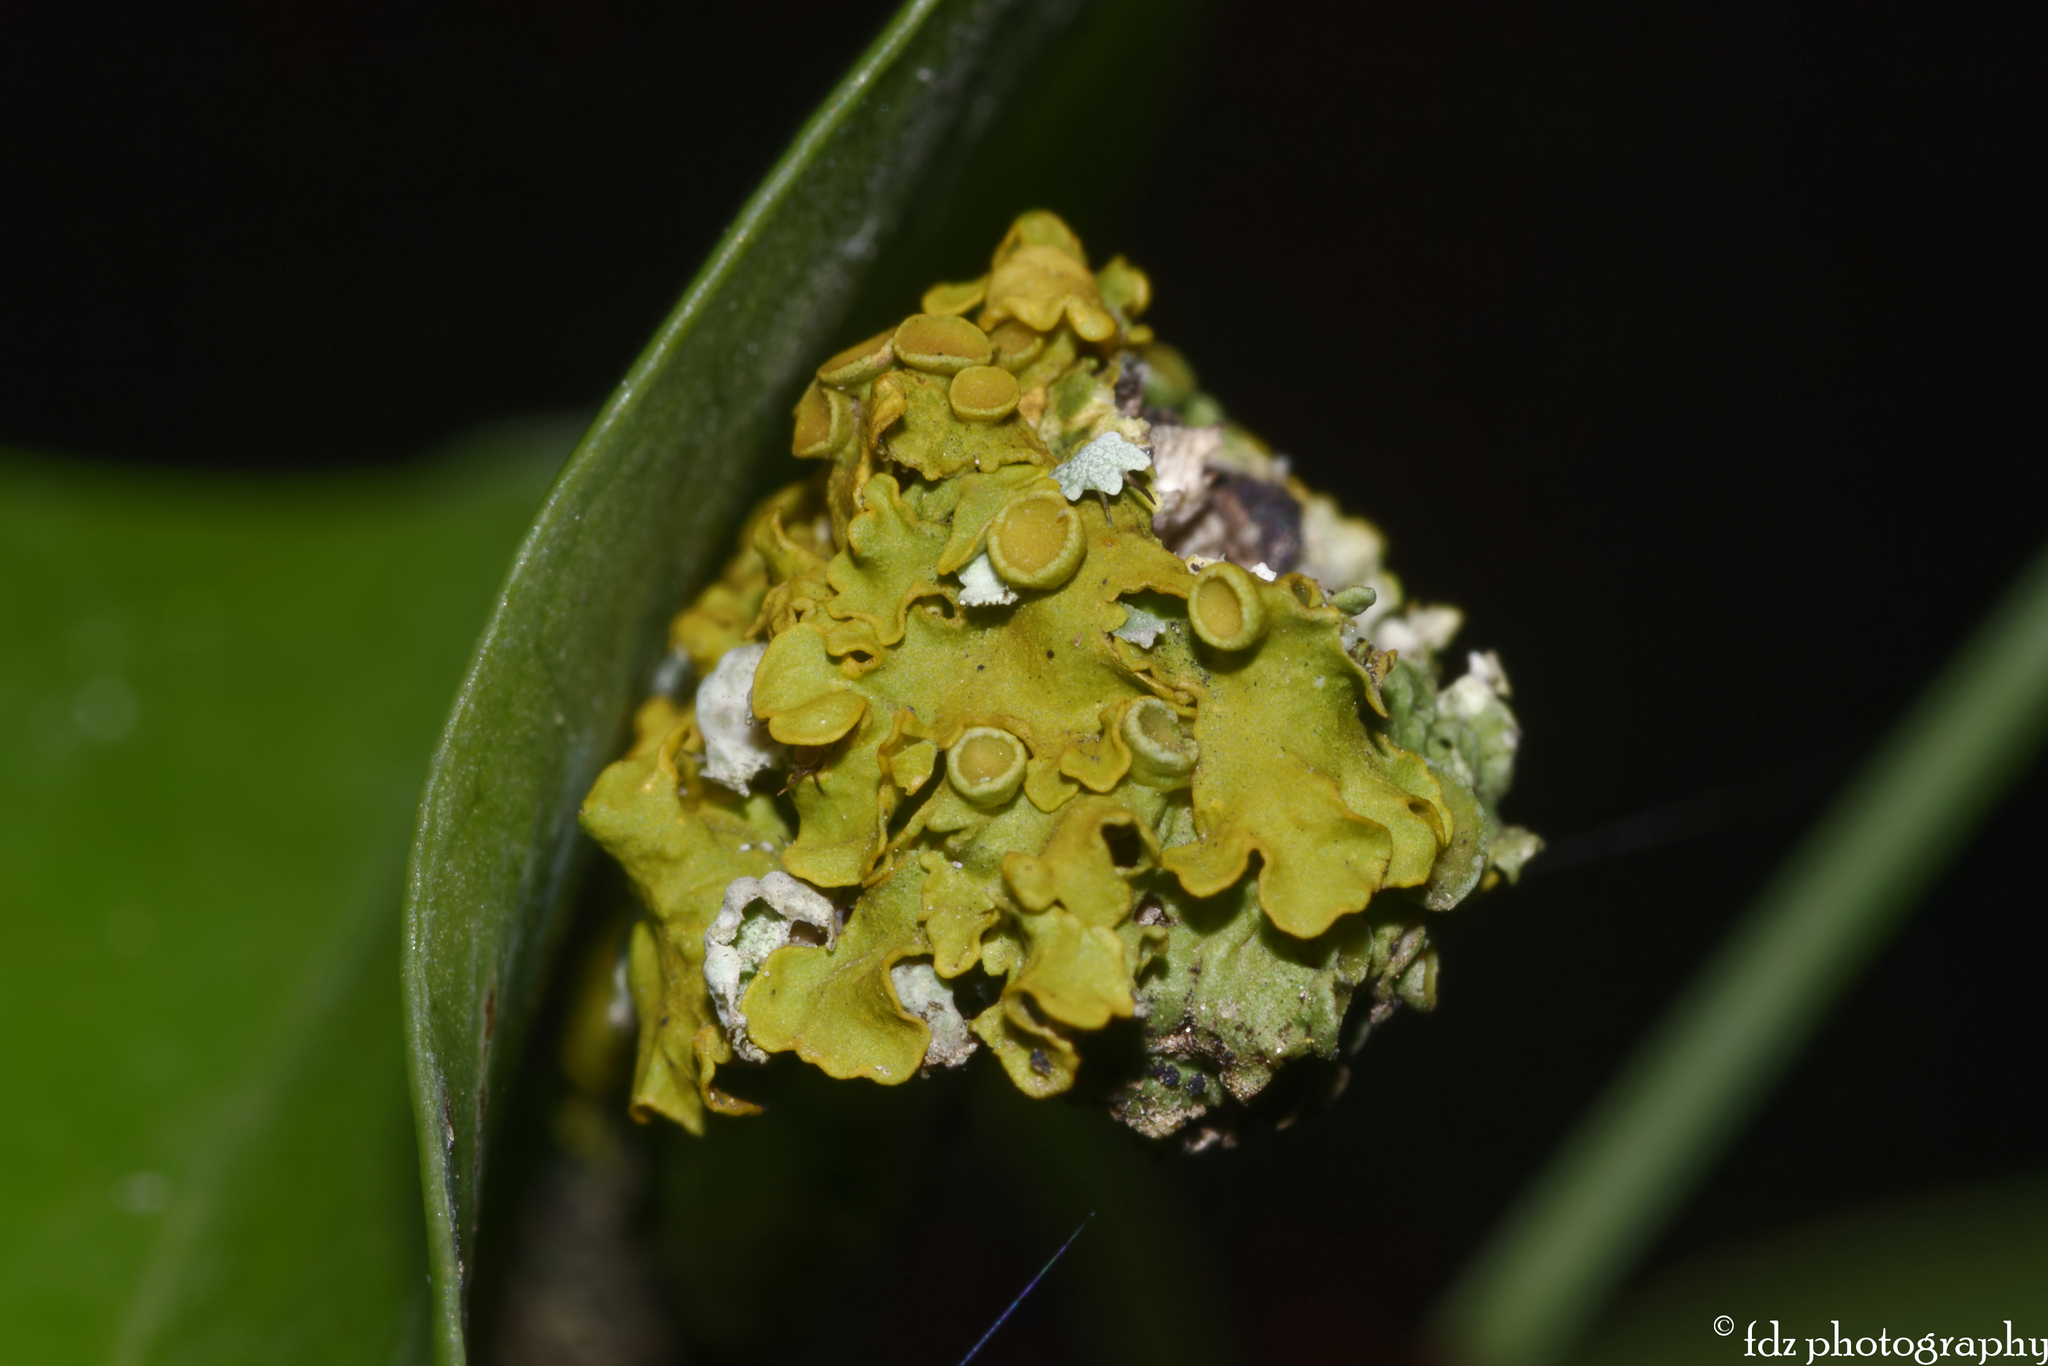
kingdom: Fungi
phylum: Ascomycota
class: Lecanoromycetes
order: Teloschistales
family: Teloschistaceae
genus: Xanthoria
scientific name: Xanthoria parietina
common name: Common orange lichen
